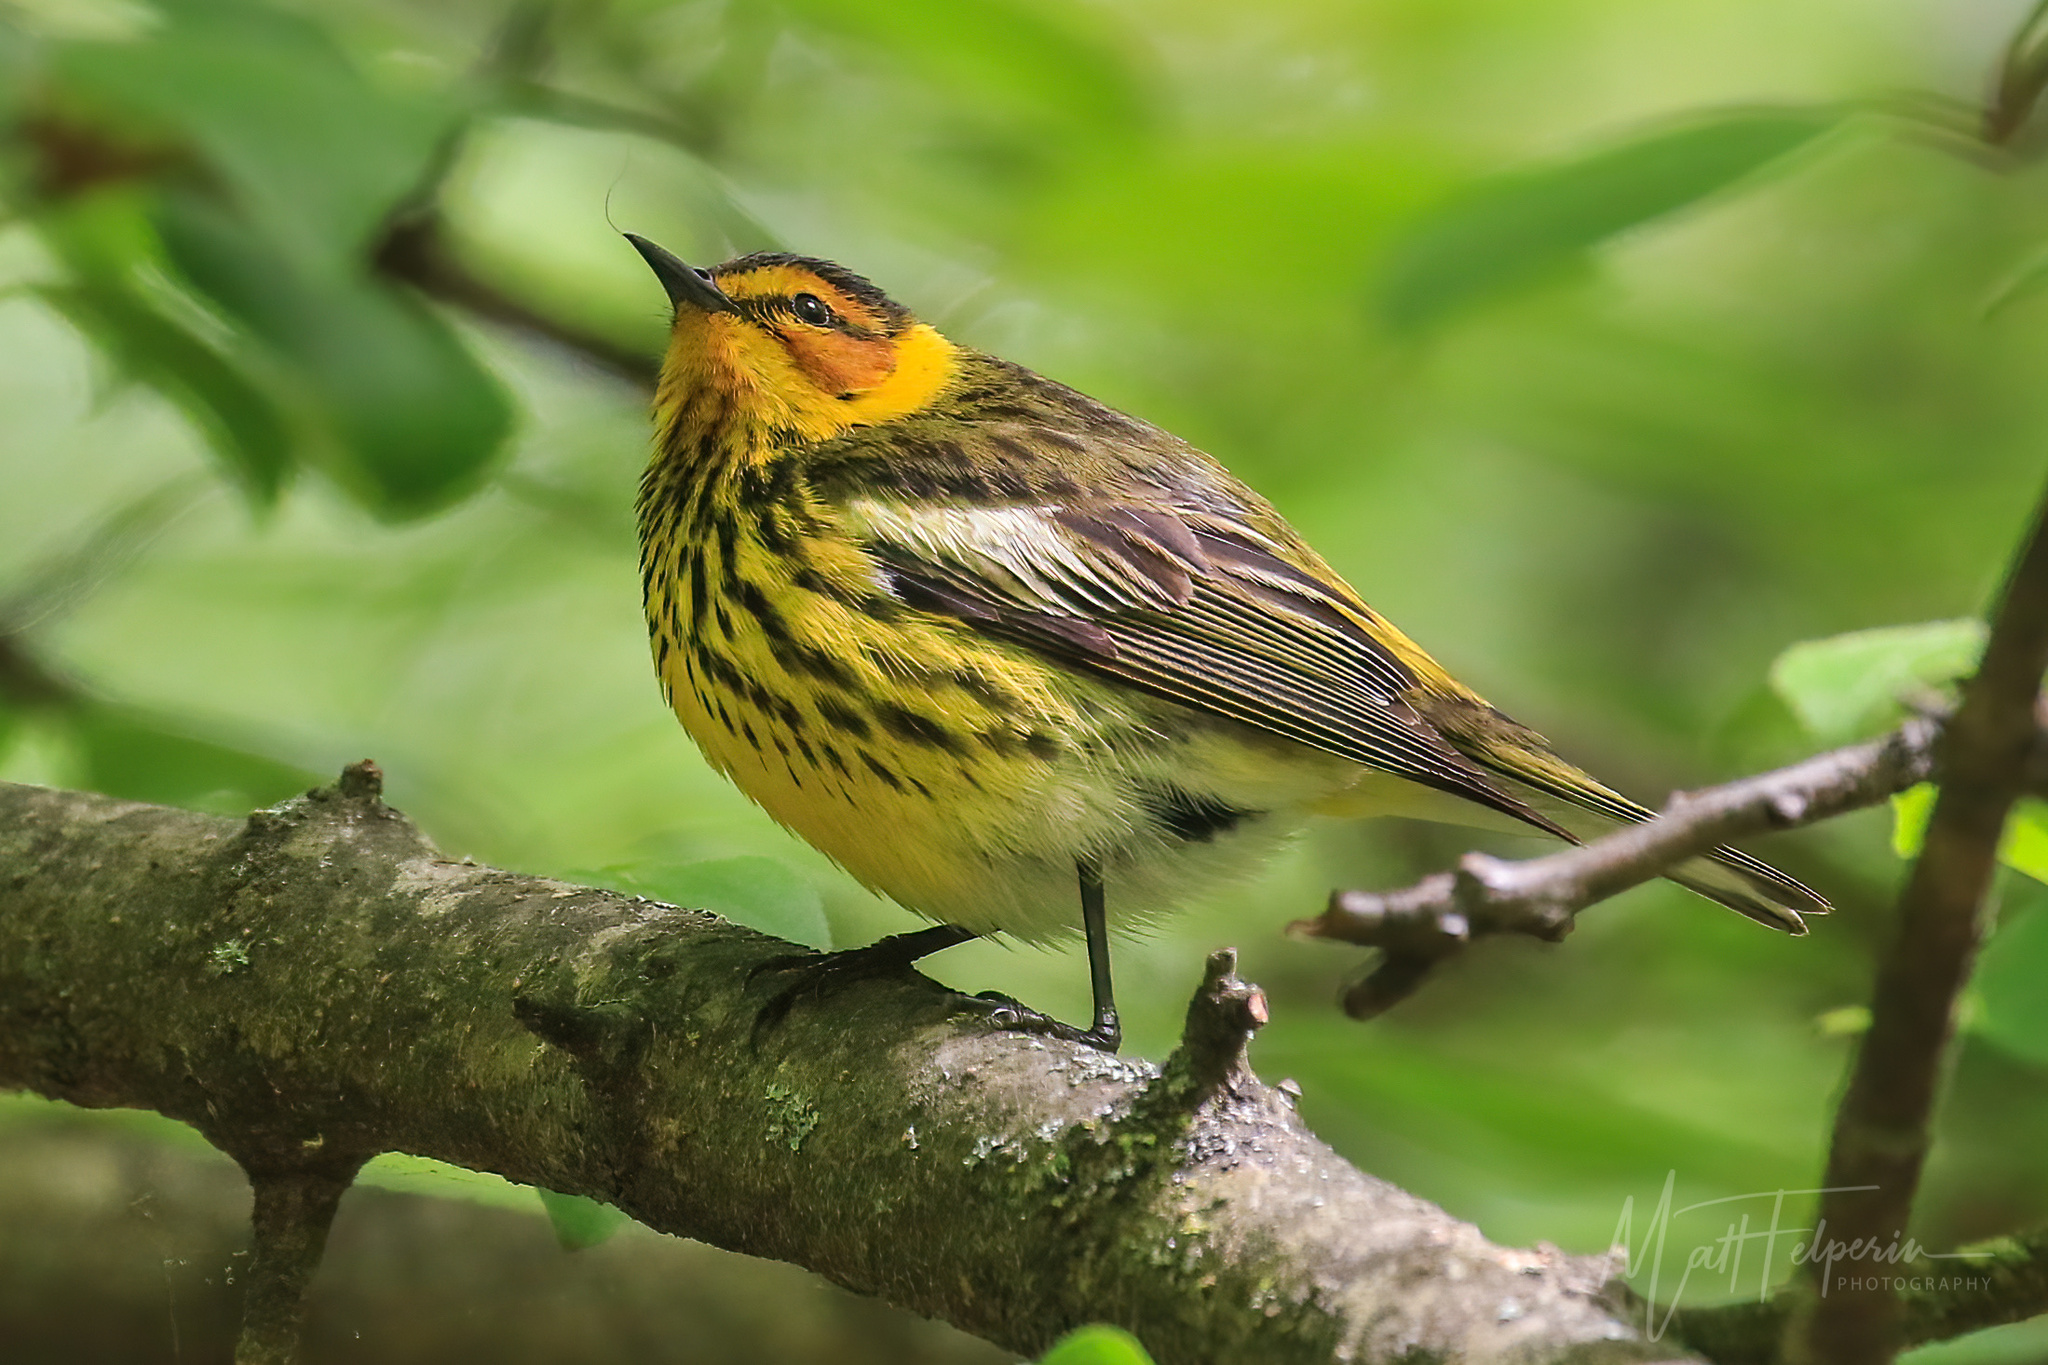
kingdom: Animalia
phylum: Chordata
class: Aves
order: Passeriformes
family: Parulidae
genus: Setophaga
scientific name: Setophaga tigrina
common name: Cape may warbler
